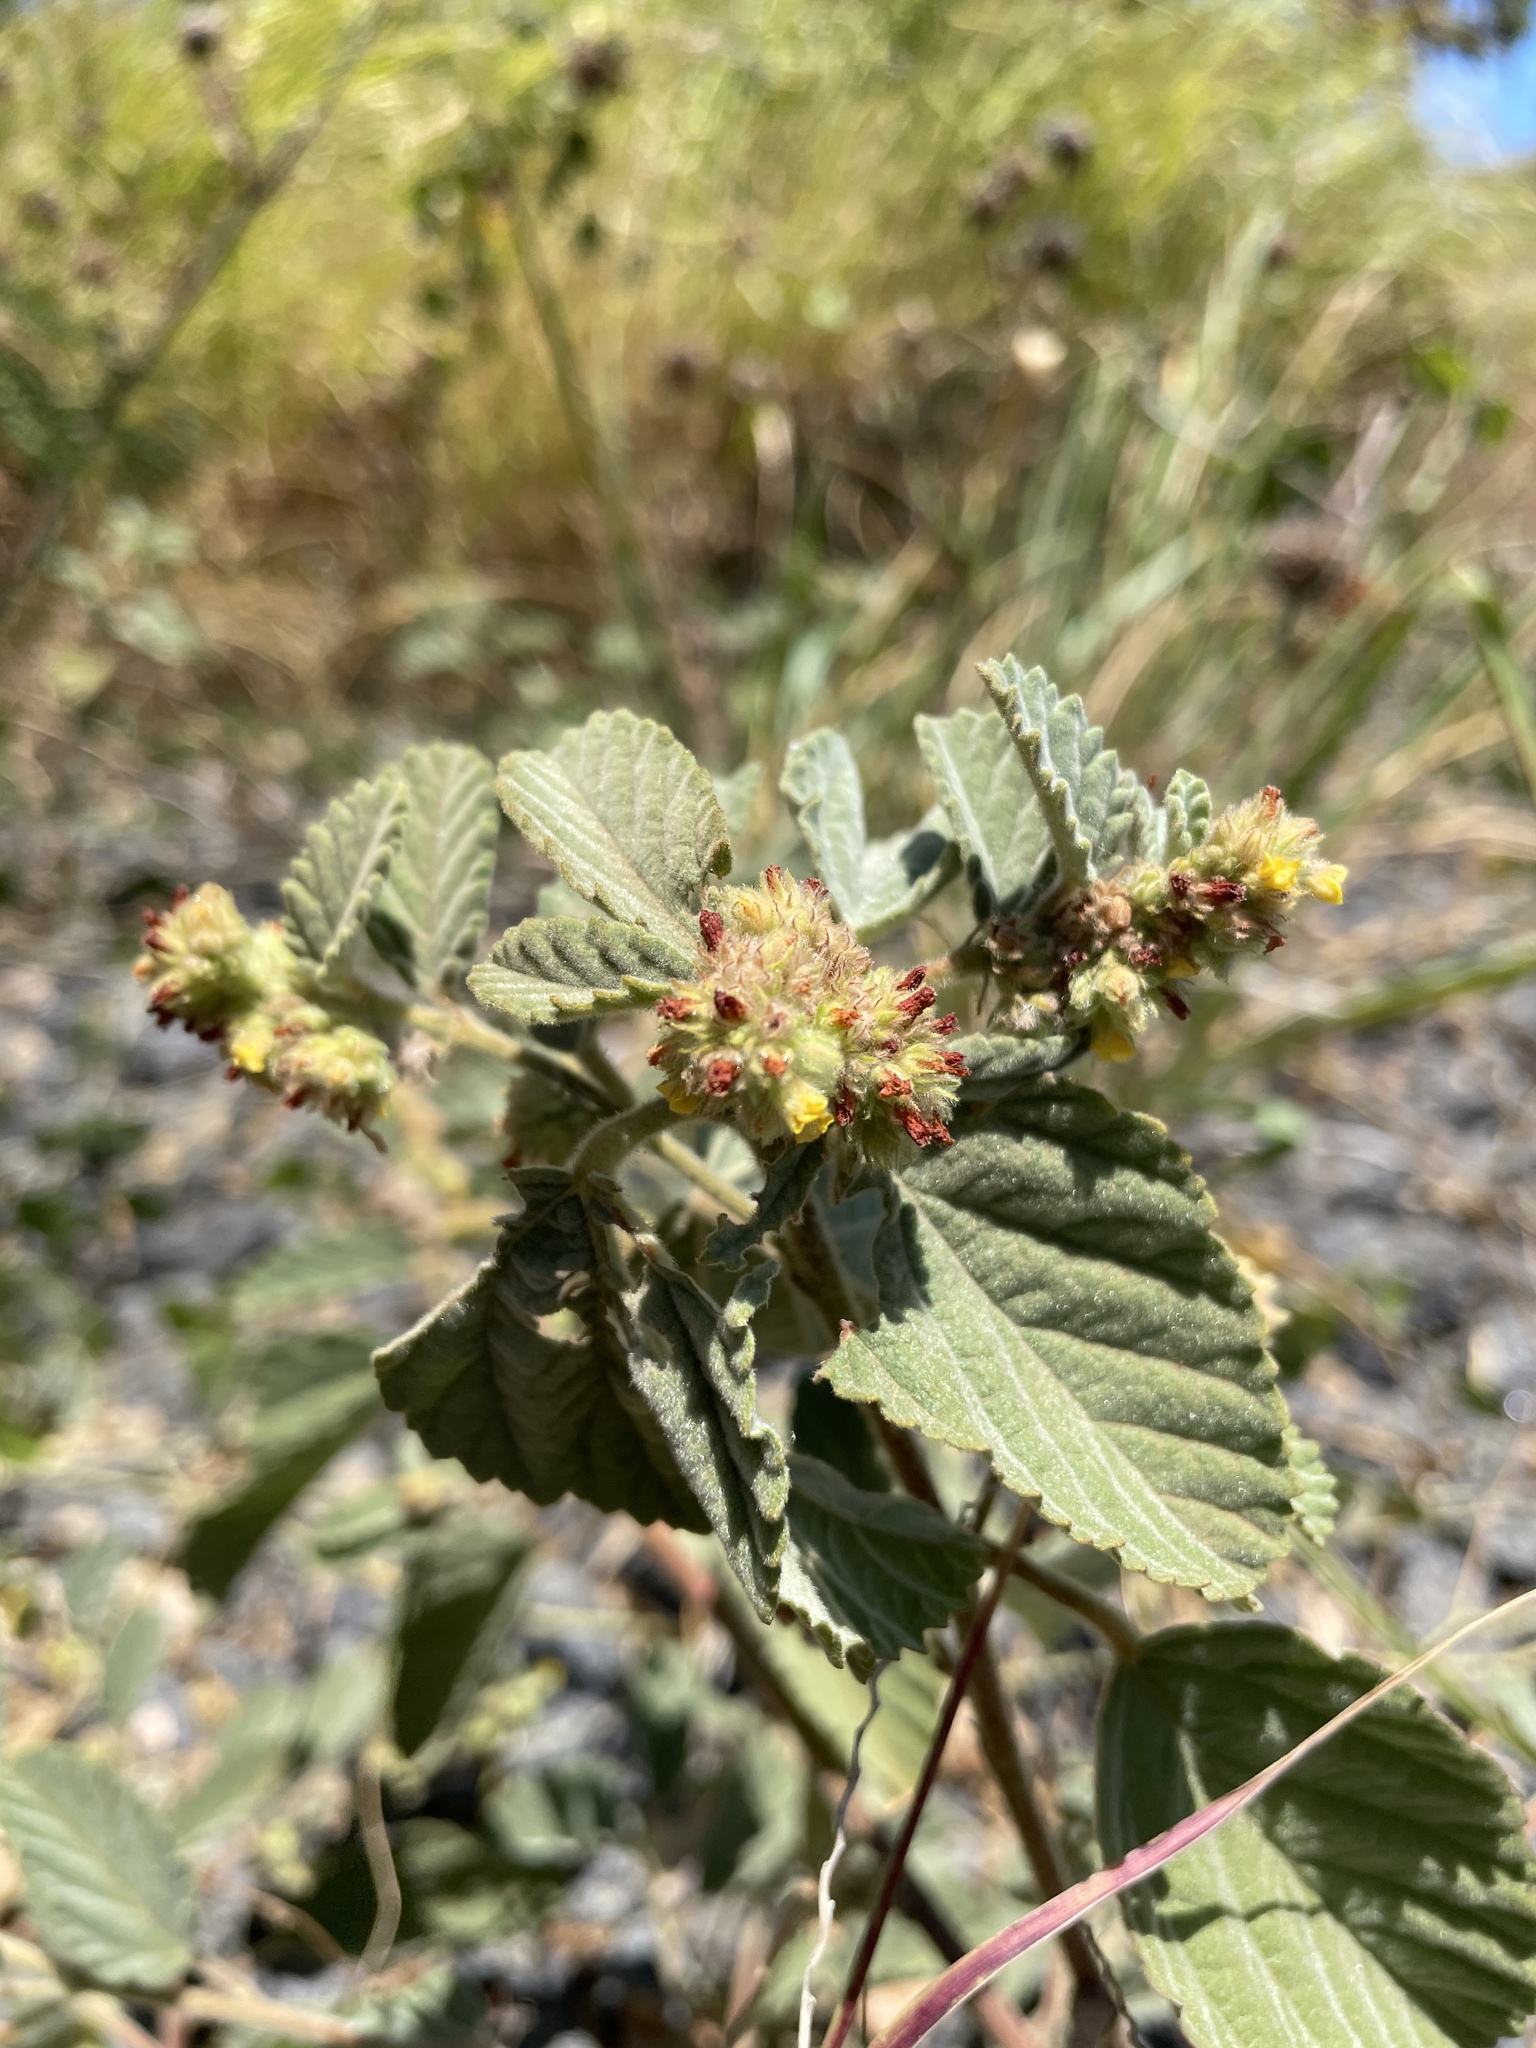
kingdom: Plantae
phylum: Tracheophyta
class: Magnoliopsida
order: Malvales
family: Malvaceae
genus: Waltheria
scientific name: Waltheria indica
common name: Leather-coat
